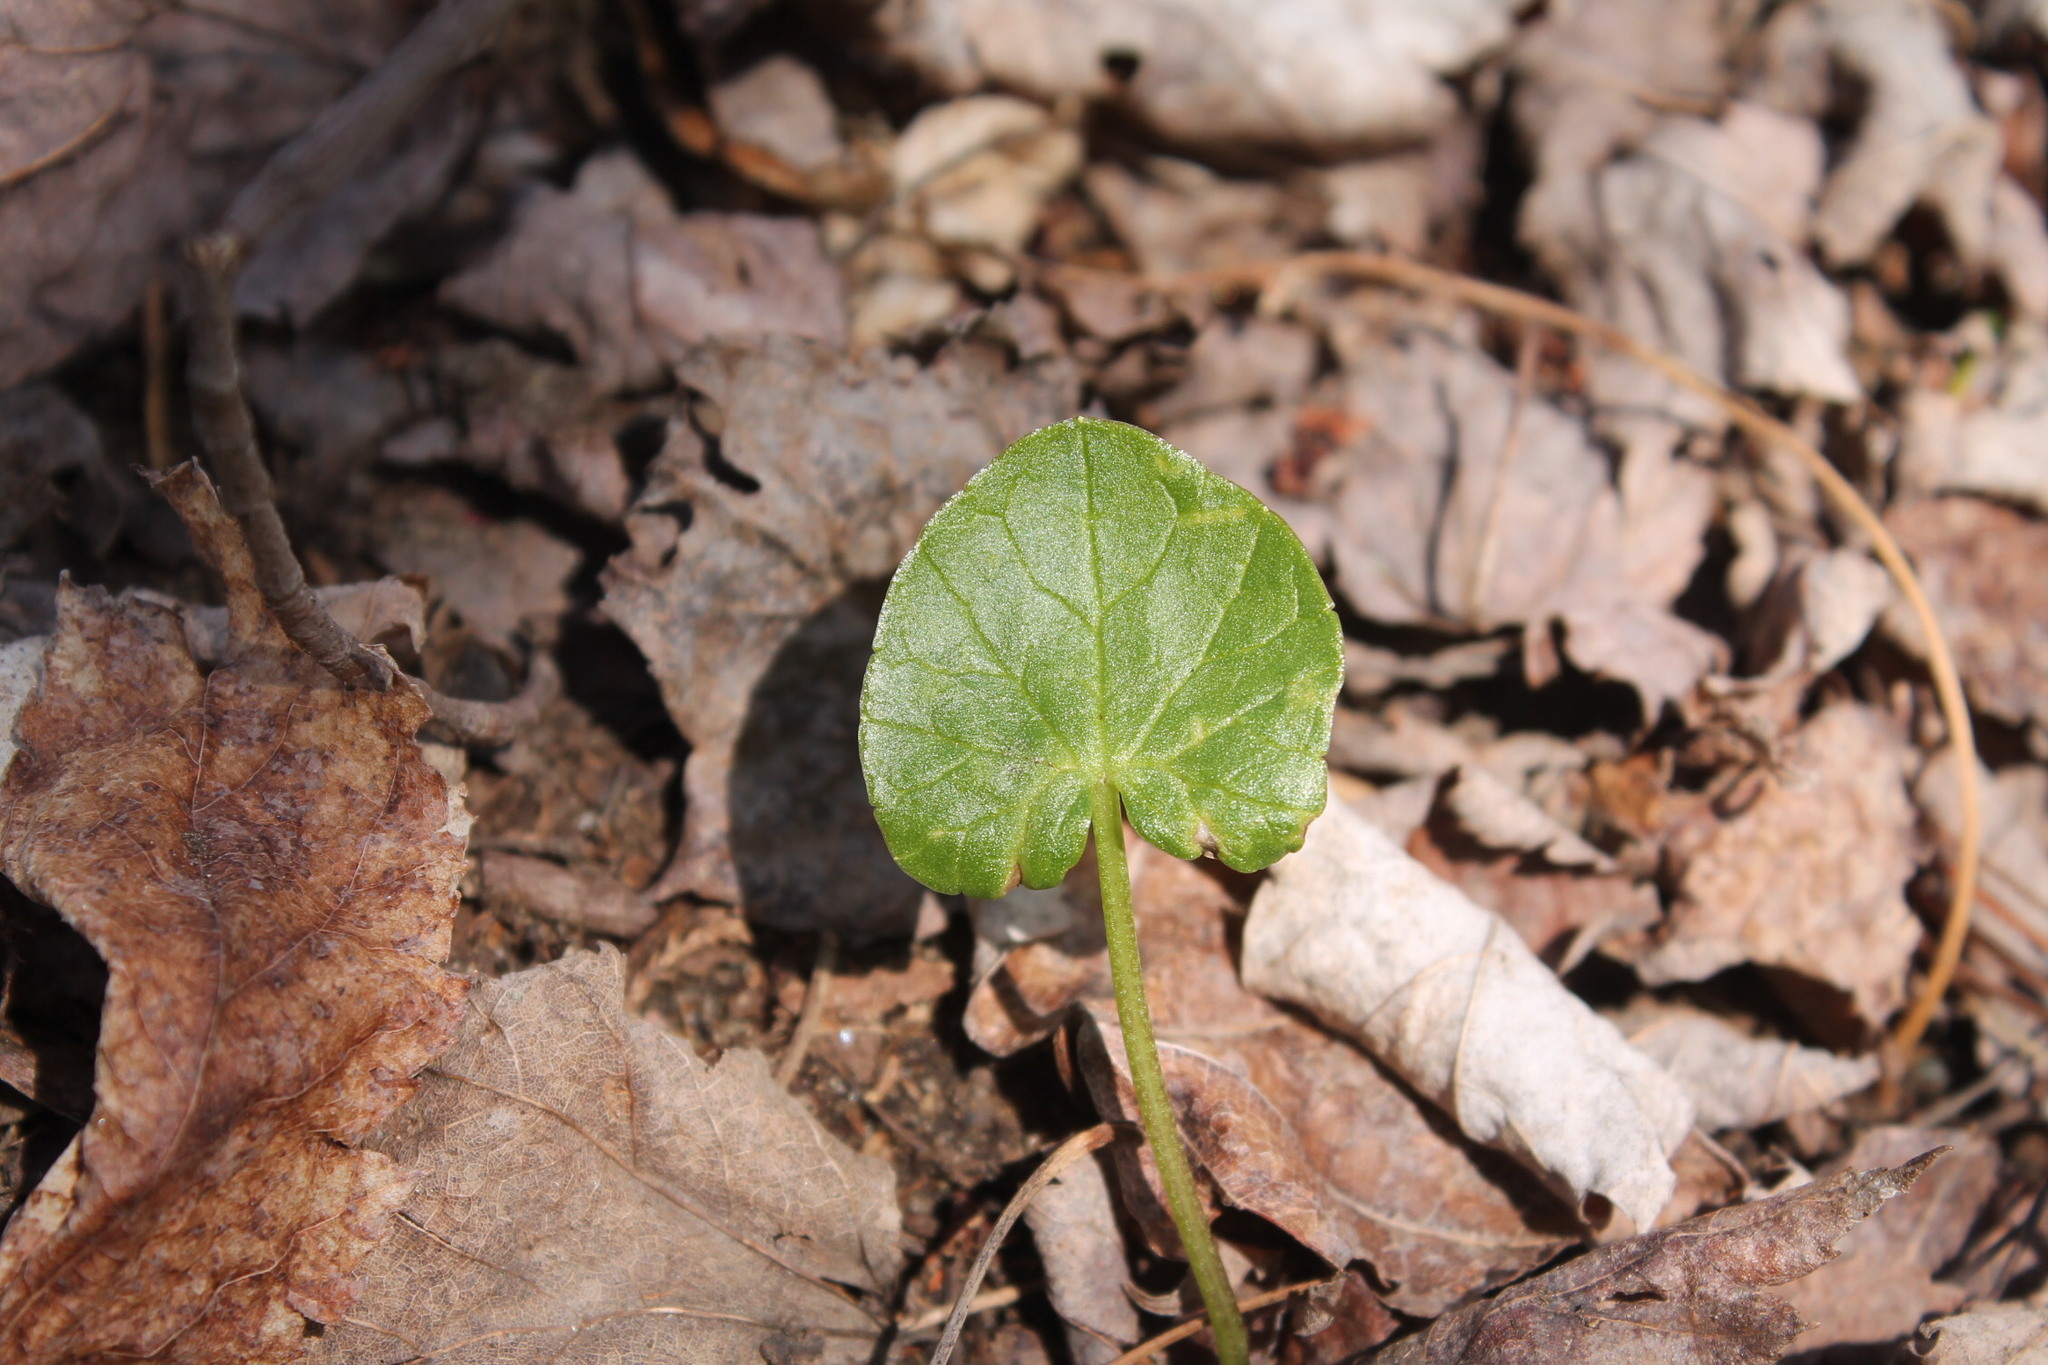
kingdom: Plantae
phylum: Tracheophyta
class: Magnoliopsida
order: Ranunculales
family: Ranunculaceae
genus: Ficaria
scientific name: Ficaria verna
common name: Lesser celandine
